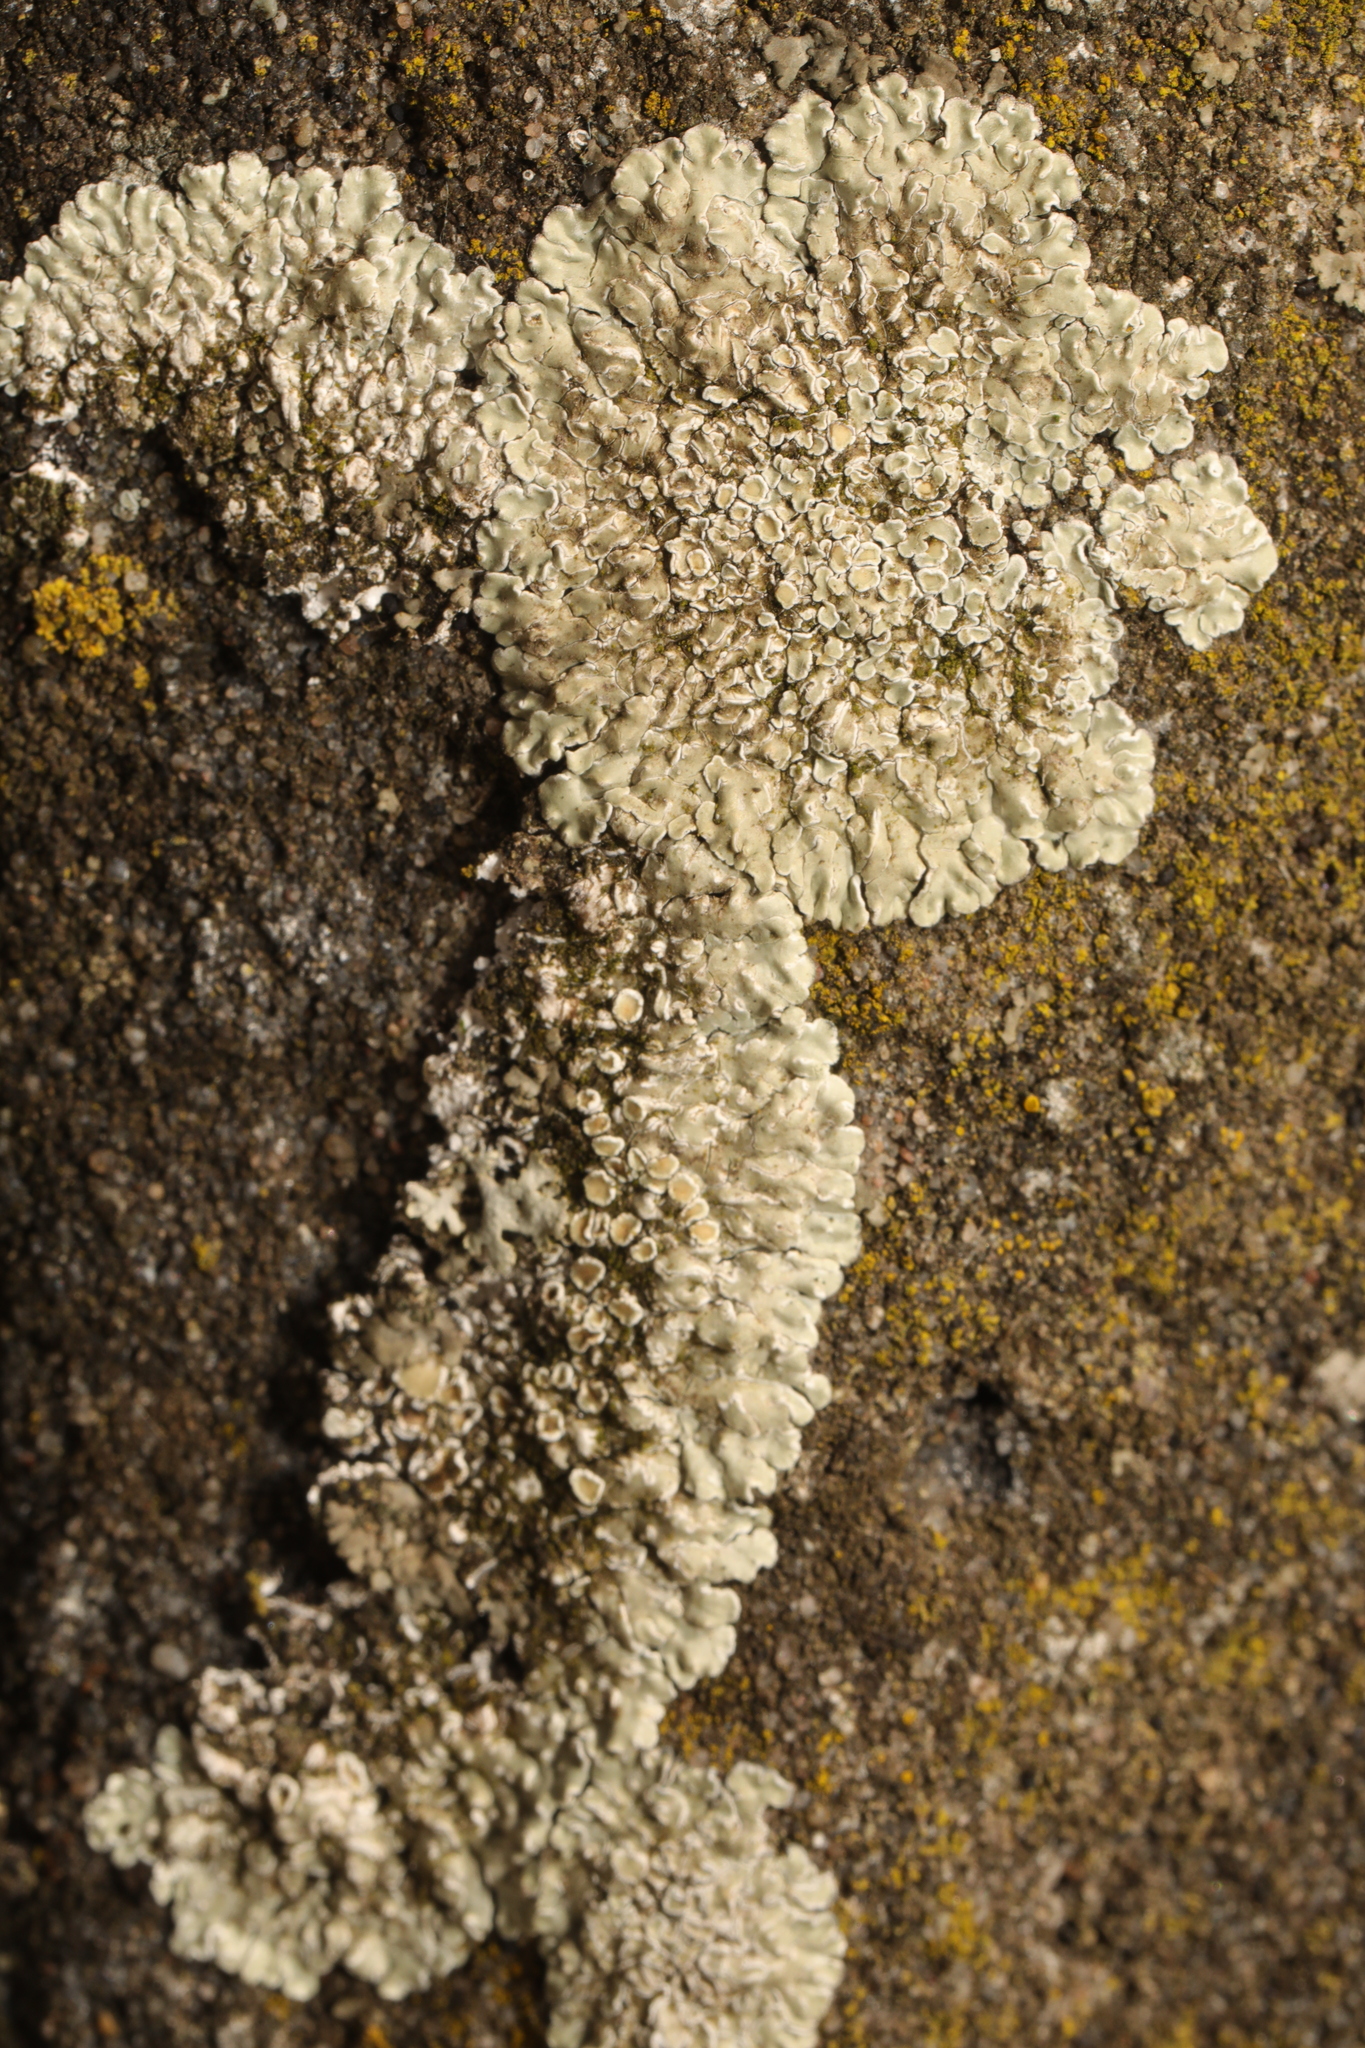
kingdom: Fungi
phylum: Ascomycota
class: Lecanoromycetes
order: Lecanorales
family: Lecanoraceae
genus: Protoparmeliopsis
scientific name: Protoparmeliopsis muralis
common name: Stonewall rim lichen
